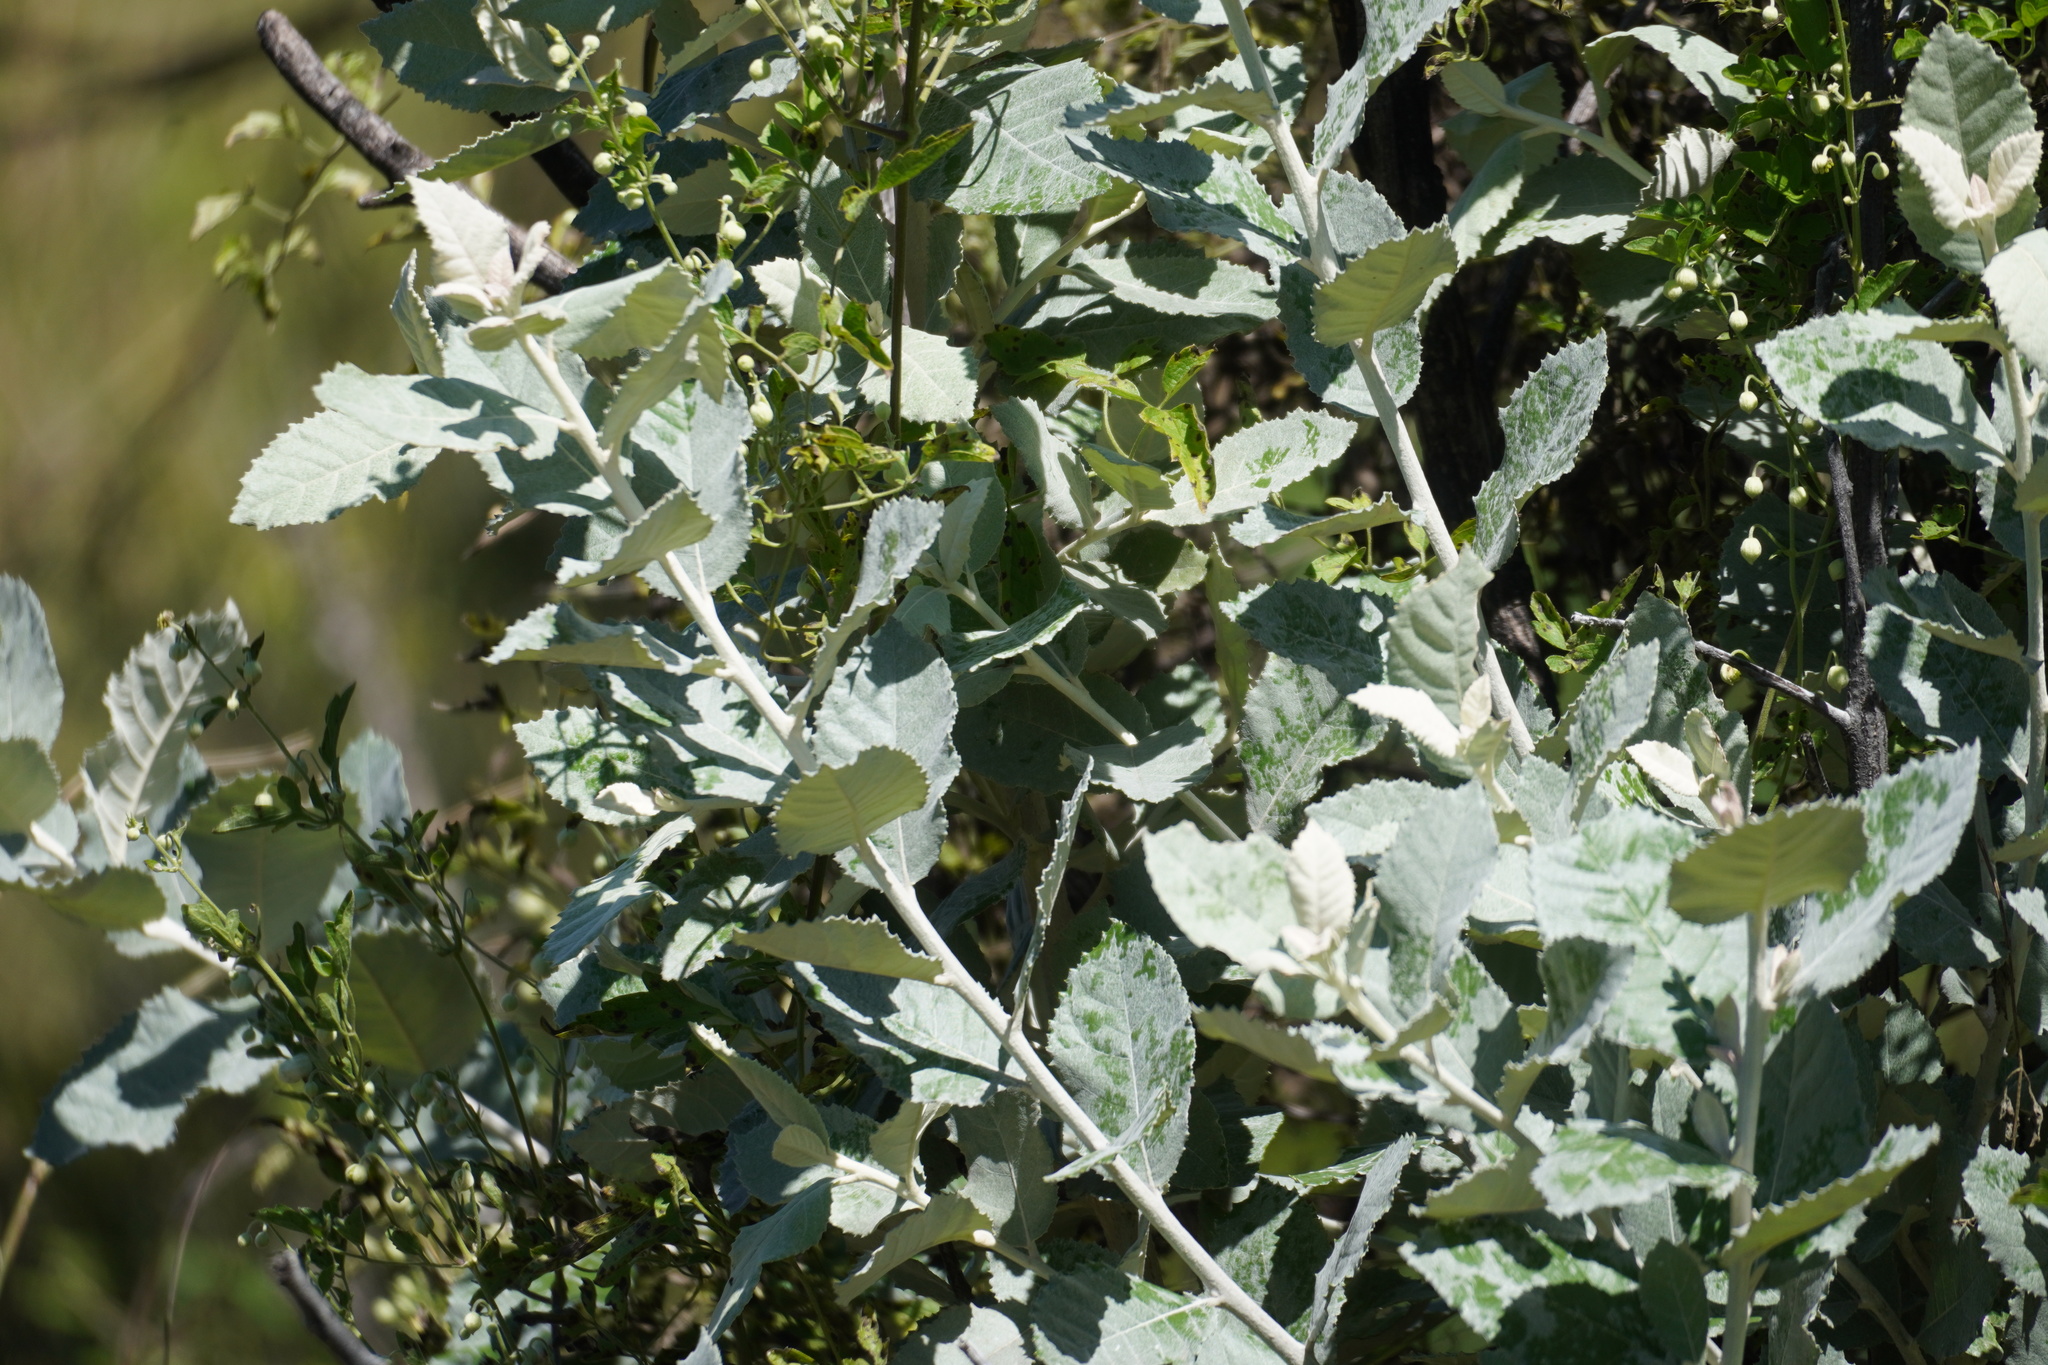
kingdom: Plantae
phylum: Tracheophyta
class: Magnoliopsida
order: Asterales
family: Asteraceae
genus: Brachylaena
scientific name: Brachylaena discolor
